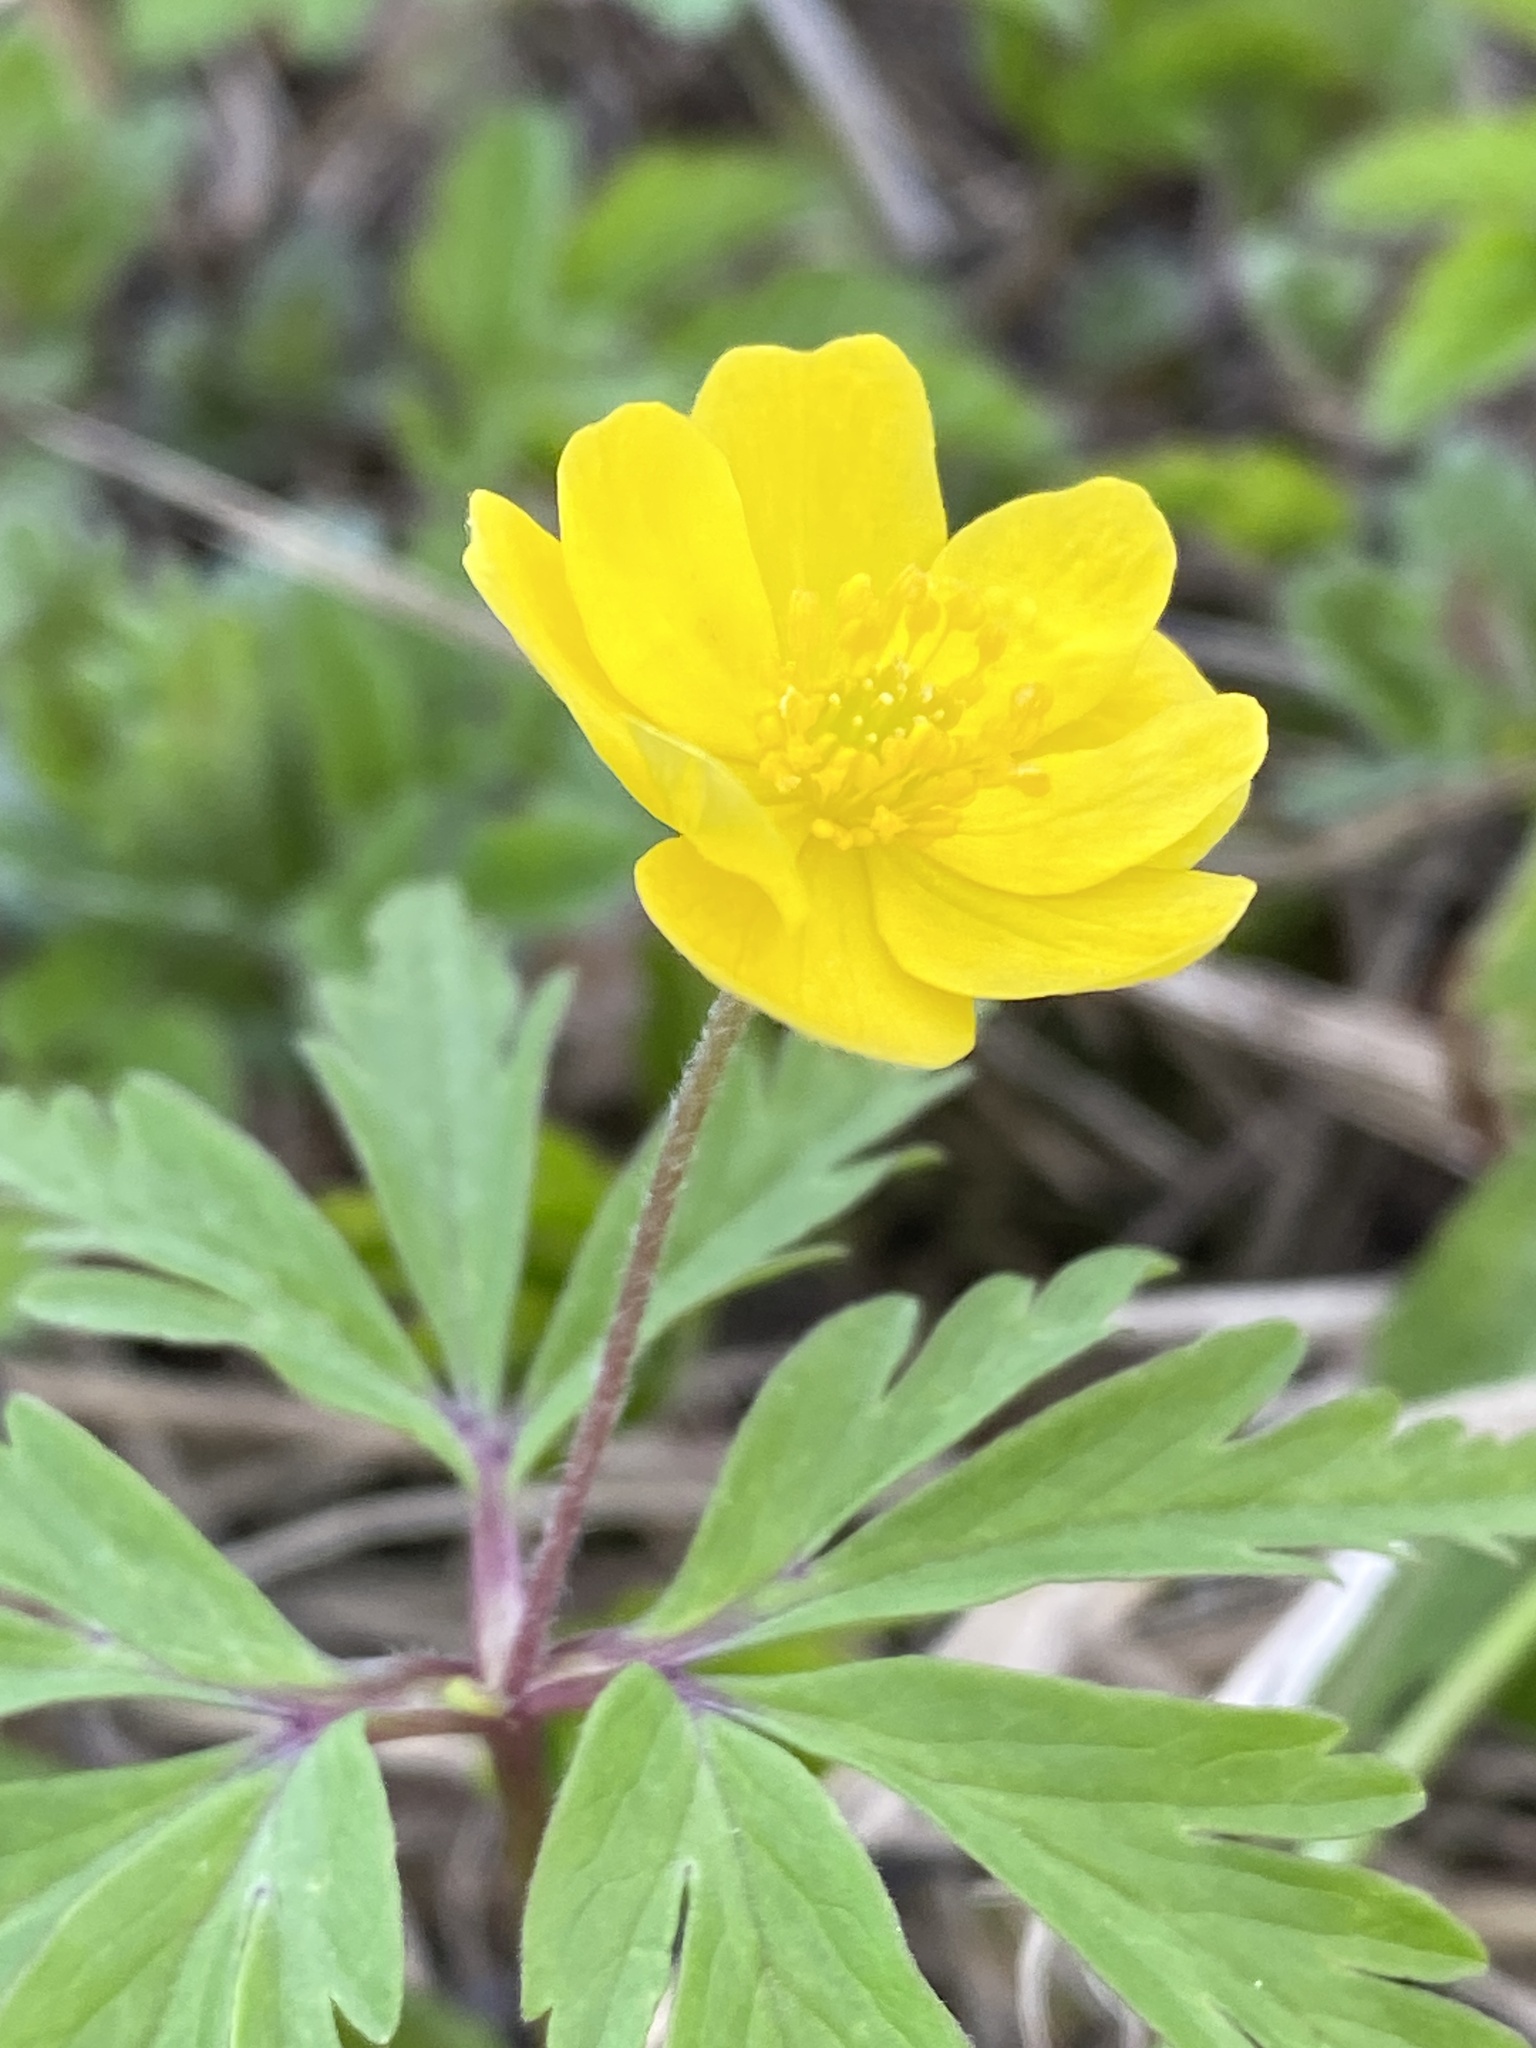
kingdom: Plantae
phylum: Tracheophyta
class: Magnoliopsida
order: Ranunculales
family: Ranunculaceae
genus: Anemone
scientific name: Anemone ranunculoides
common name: Yellow anemone
